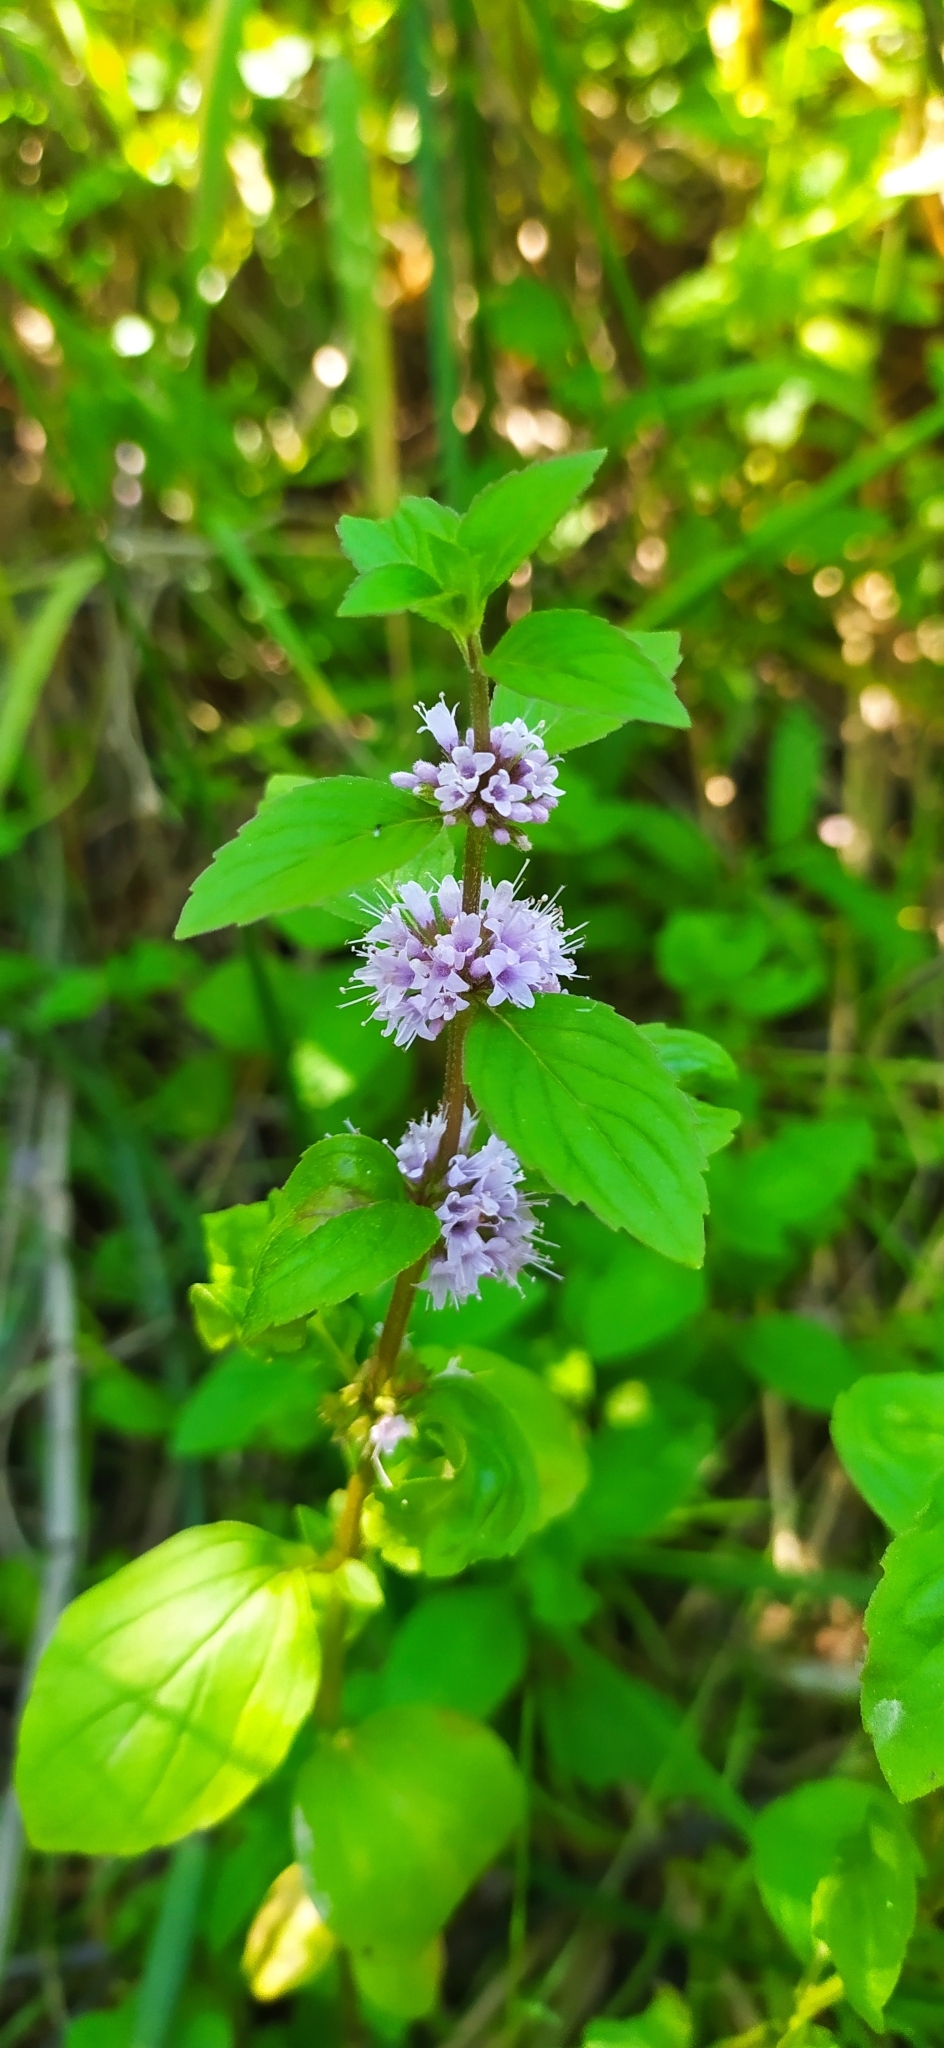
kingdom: Plantae
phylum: Tracheophyta
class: Magnoliopsida
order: Lamiales
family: Lamiaceae
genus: Mentha
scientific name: Mentha arvensis
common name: Corn mint
